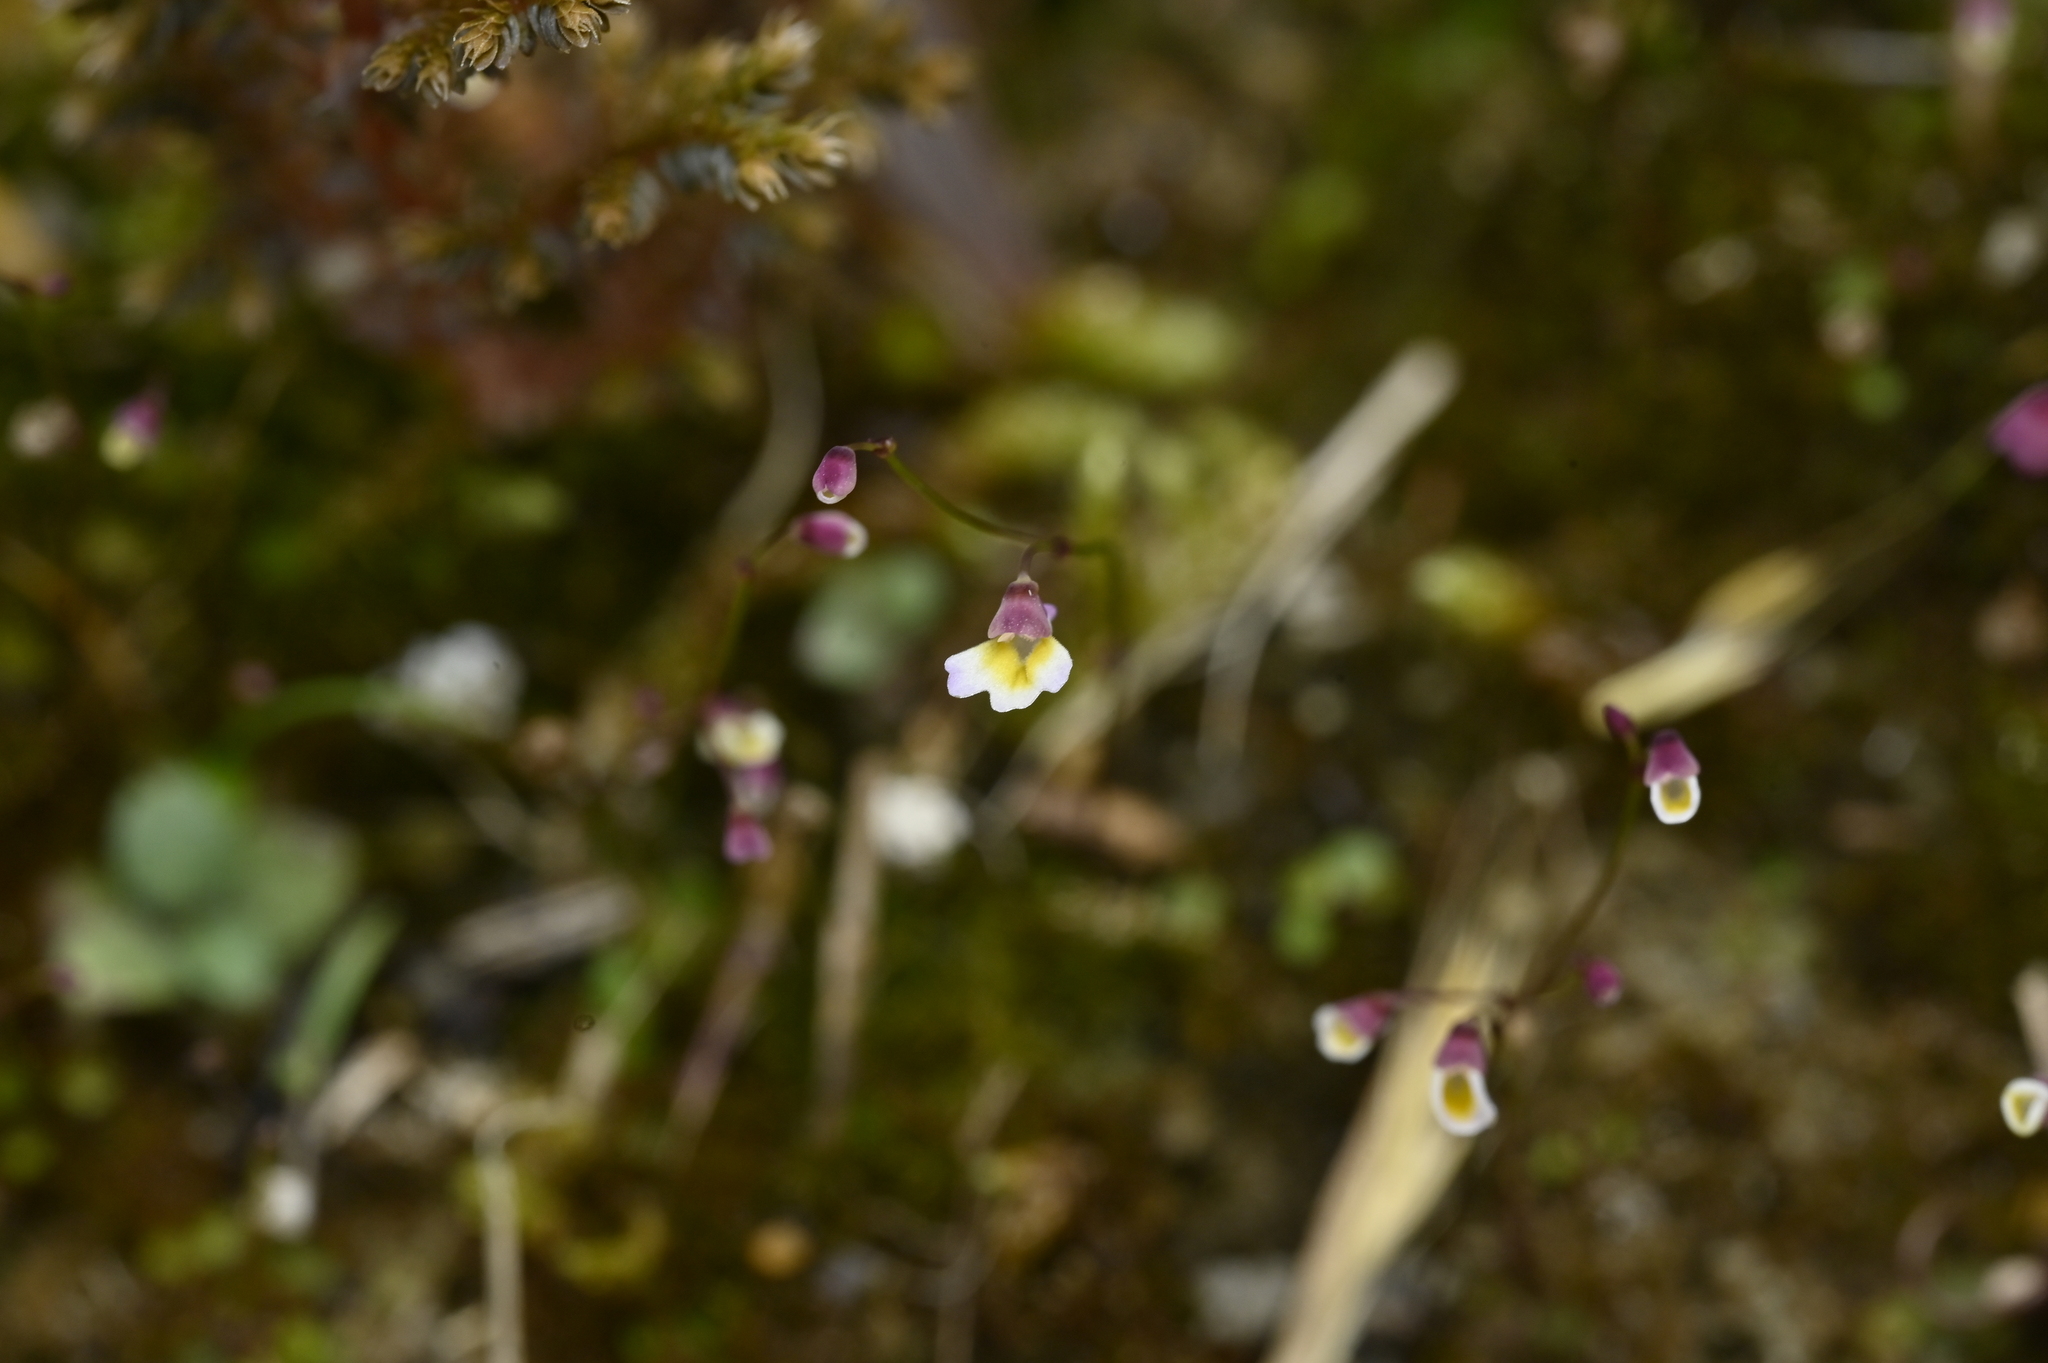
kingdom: Plantae
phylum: Tracheophyta
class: Magnoliopsida
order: Lamiales
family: Lentibulariaceae
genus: Utricularia
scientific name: Utricularia striatula
